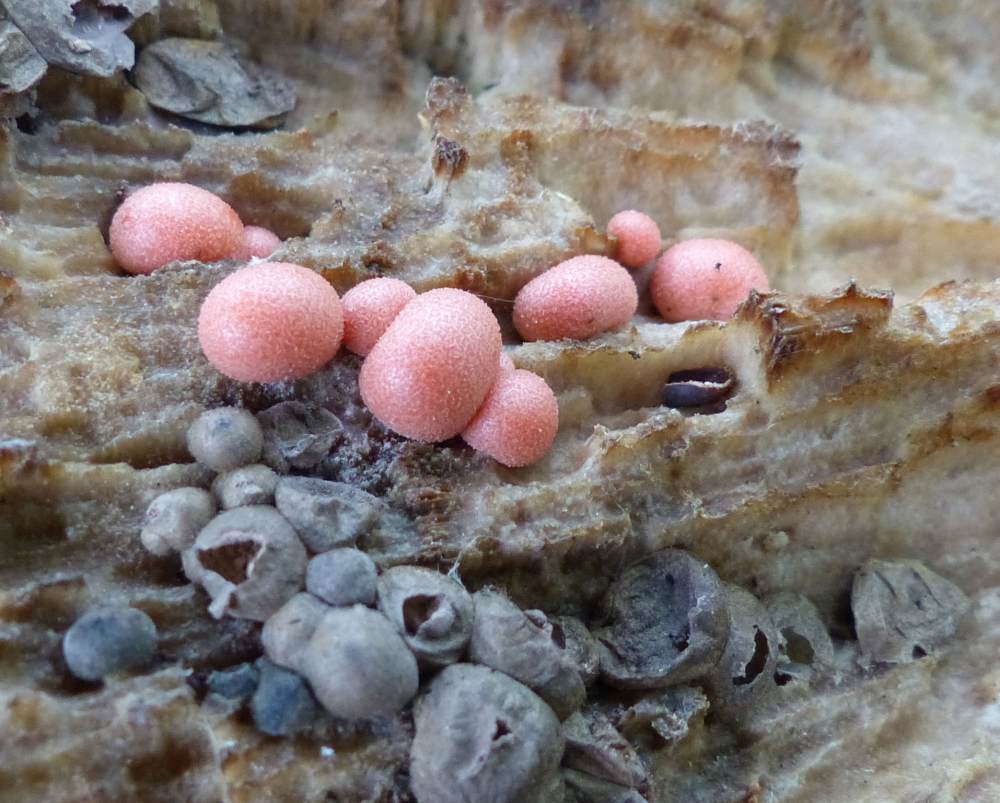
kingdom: Protozoa
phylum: Mycetozoa
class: Myxomycetes
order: Cribrariales
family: Tubiferaceae
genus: Lycogala
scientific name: Lycogala epidendrum
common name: Wolf's milk
